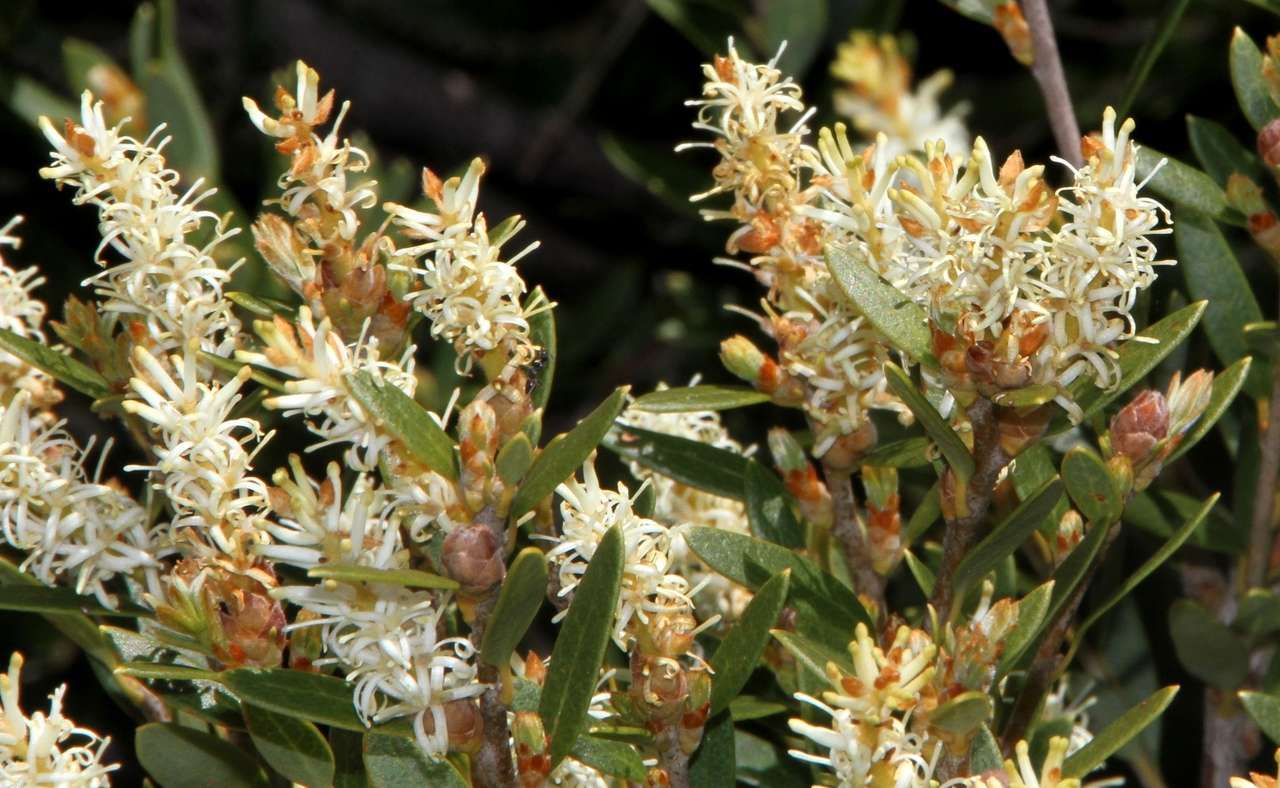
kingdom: Plantae
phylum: Tracheophyta
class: Magnoliopsida
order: Proteales
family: Proteaceae
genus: Orites
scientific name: Orites lancifolius
